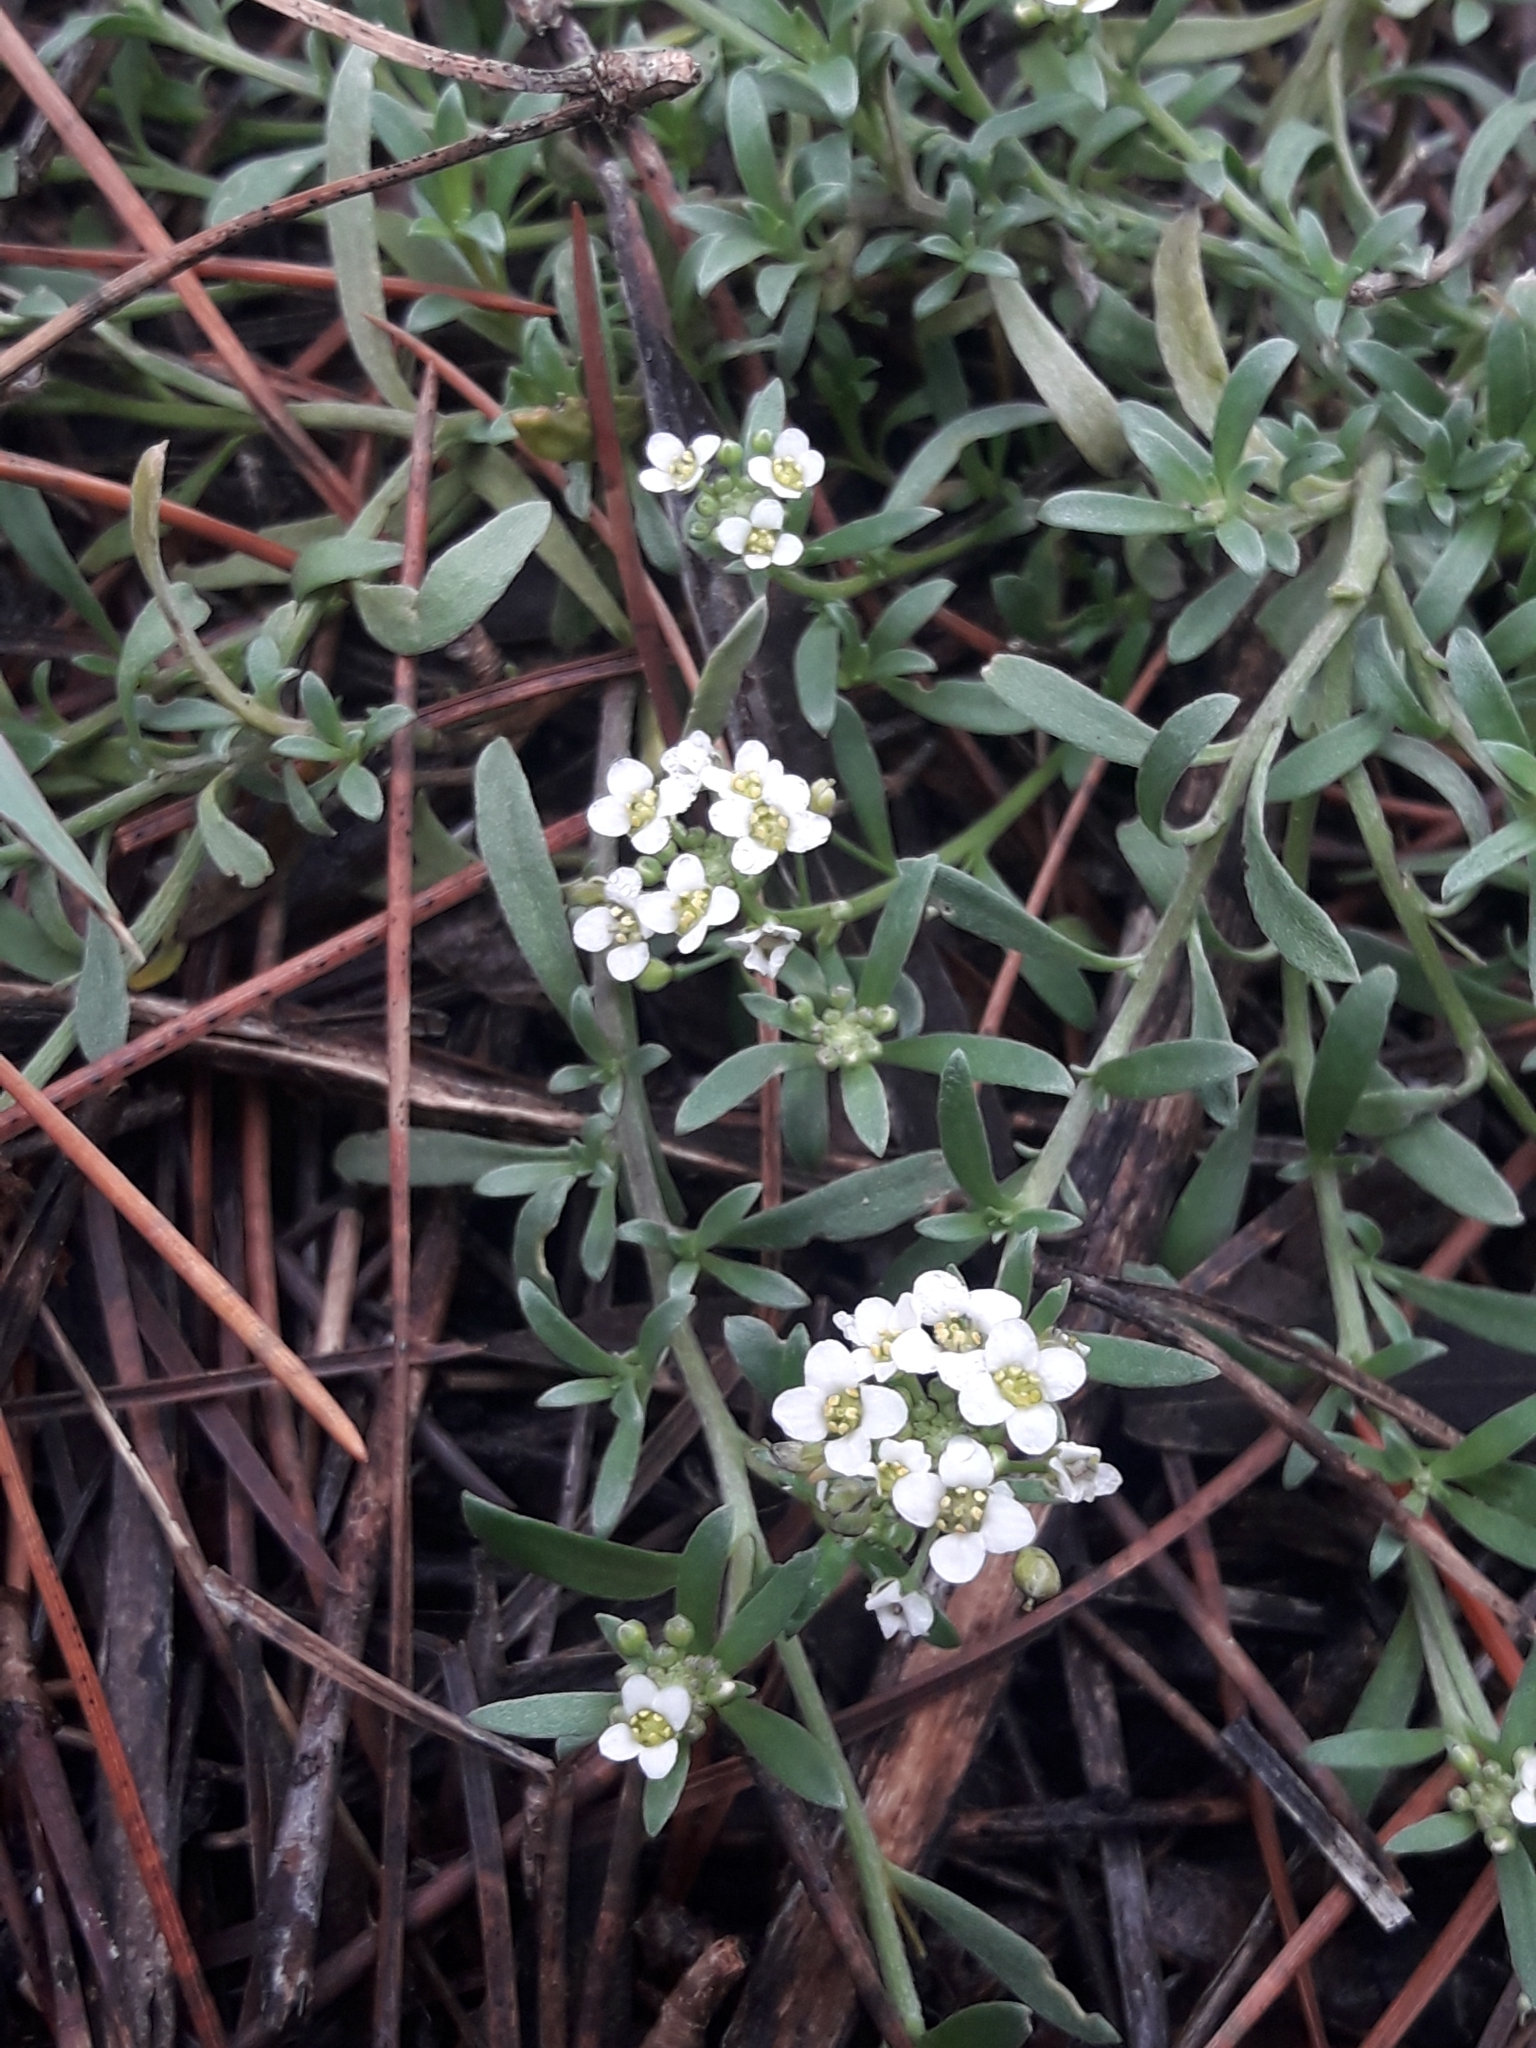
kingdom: Plantae
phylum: Tracheophyta
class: Magnoliopsida
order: Brassicales
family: Brassicaceae
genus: Lobularia
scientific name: Lobularia maritima
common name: Sweet alison
